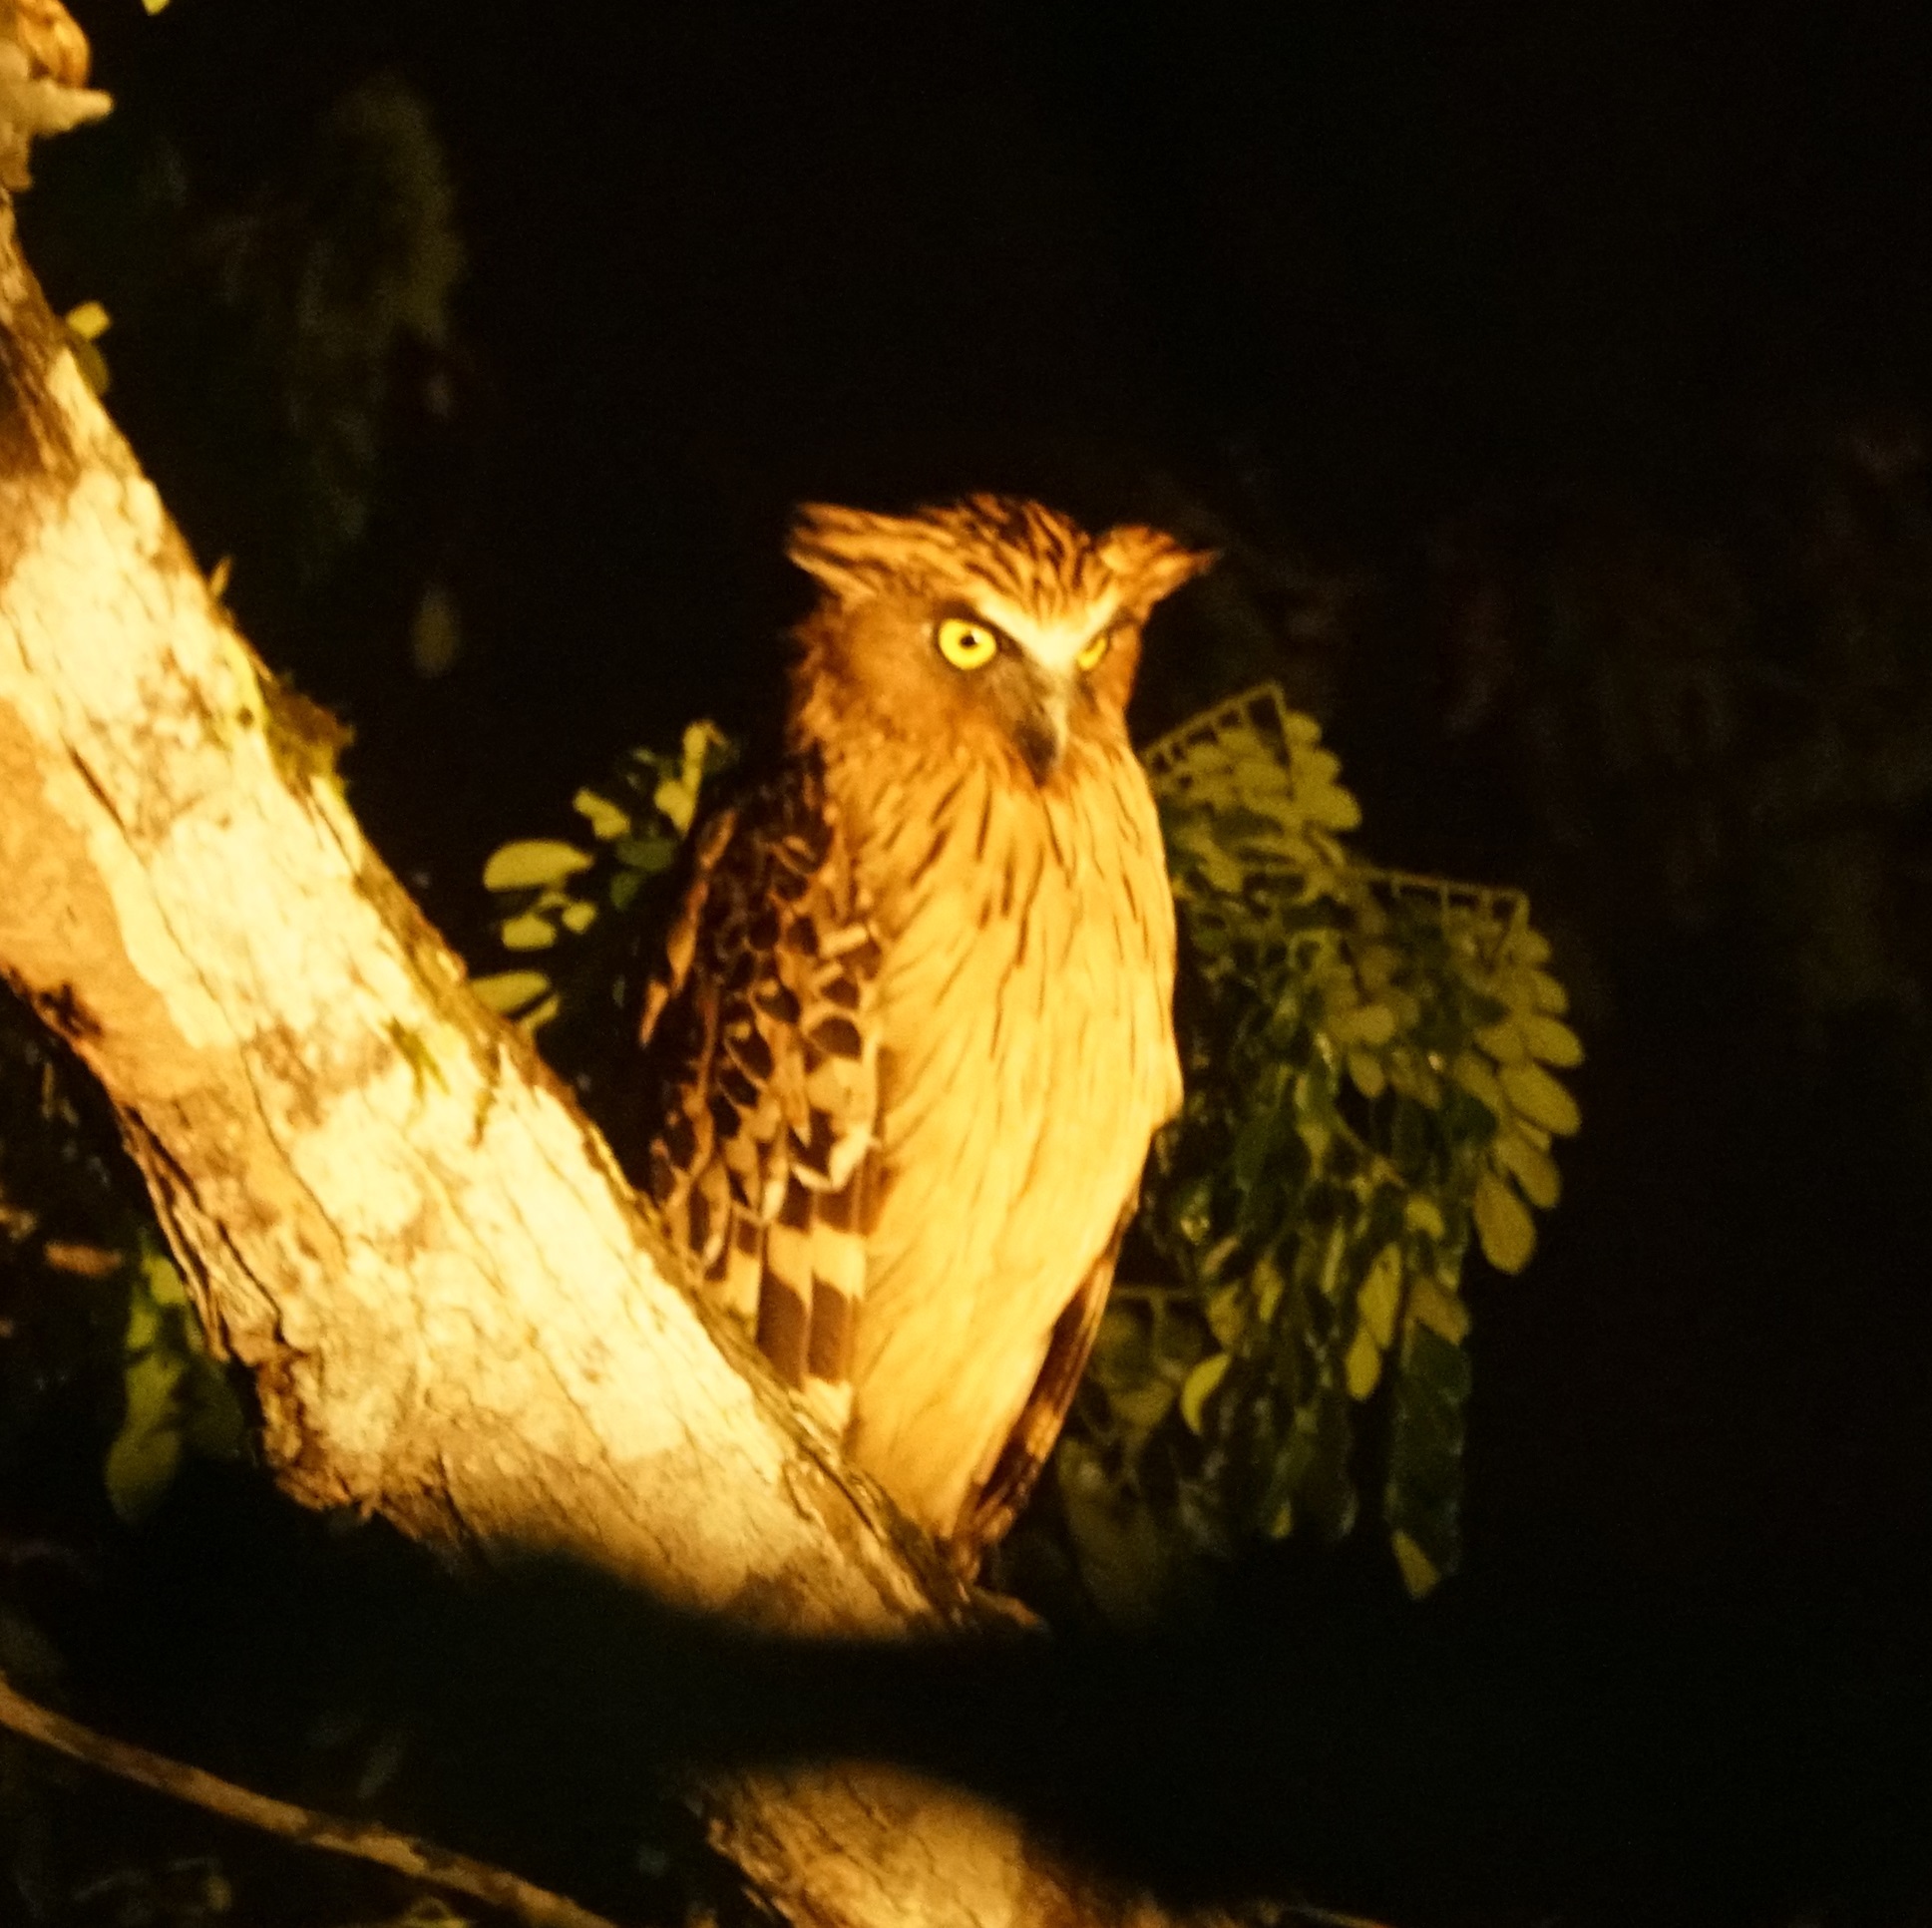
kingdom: Animalia
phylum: Chordata
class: Aves
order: Strigiformes
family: Strigidae
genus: Ketupa
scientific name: Ketupa ketupu
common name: Buffy fish-owl
